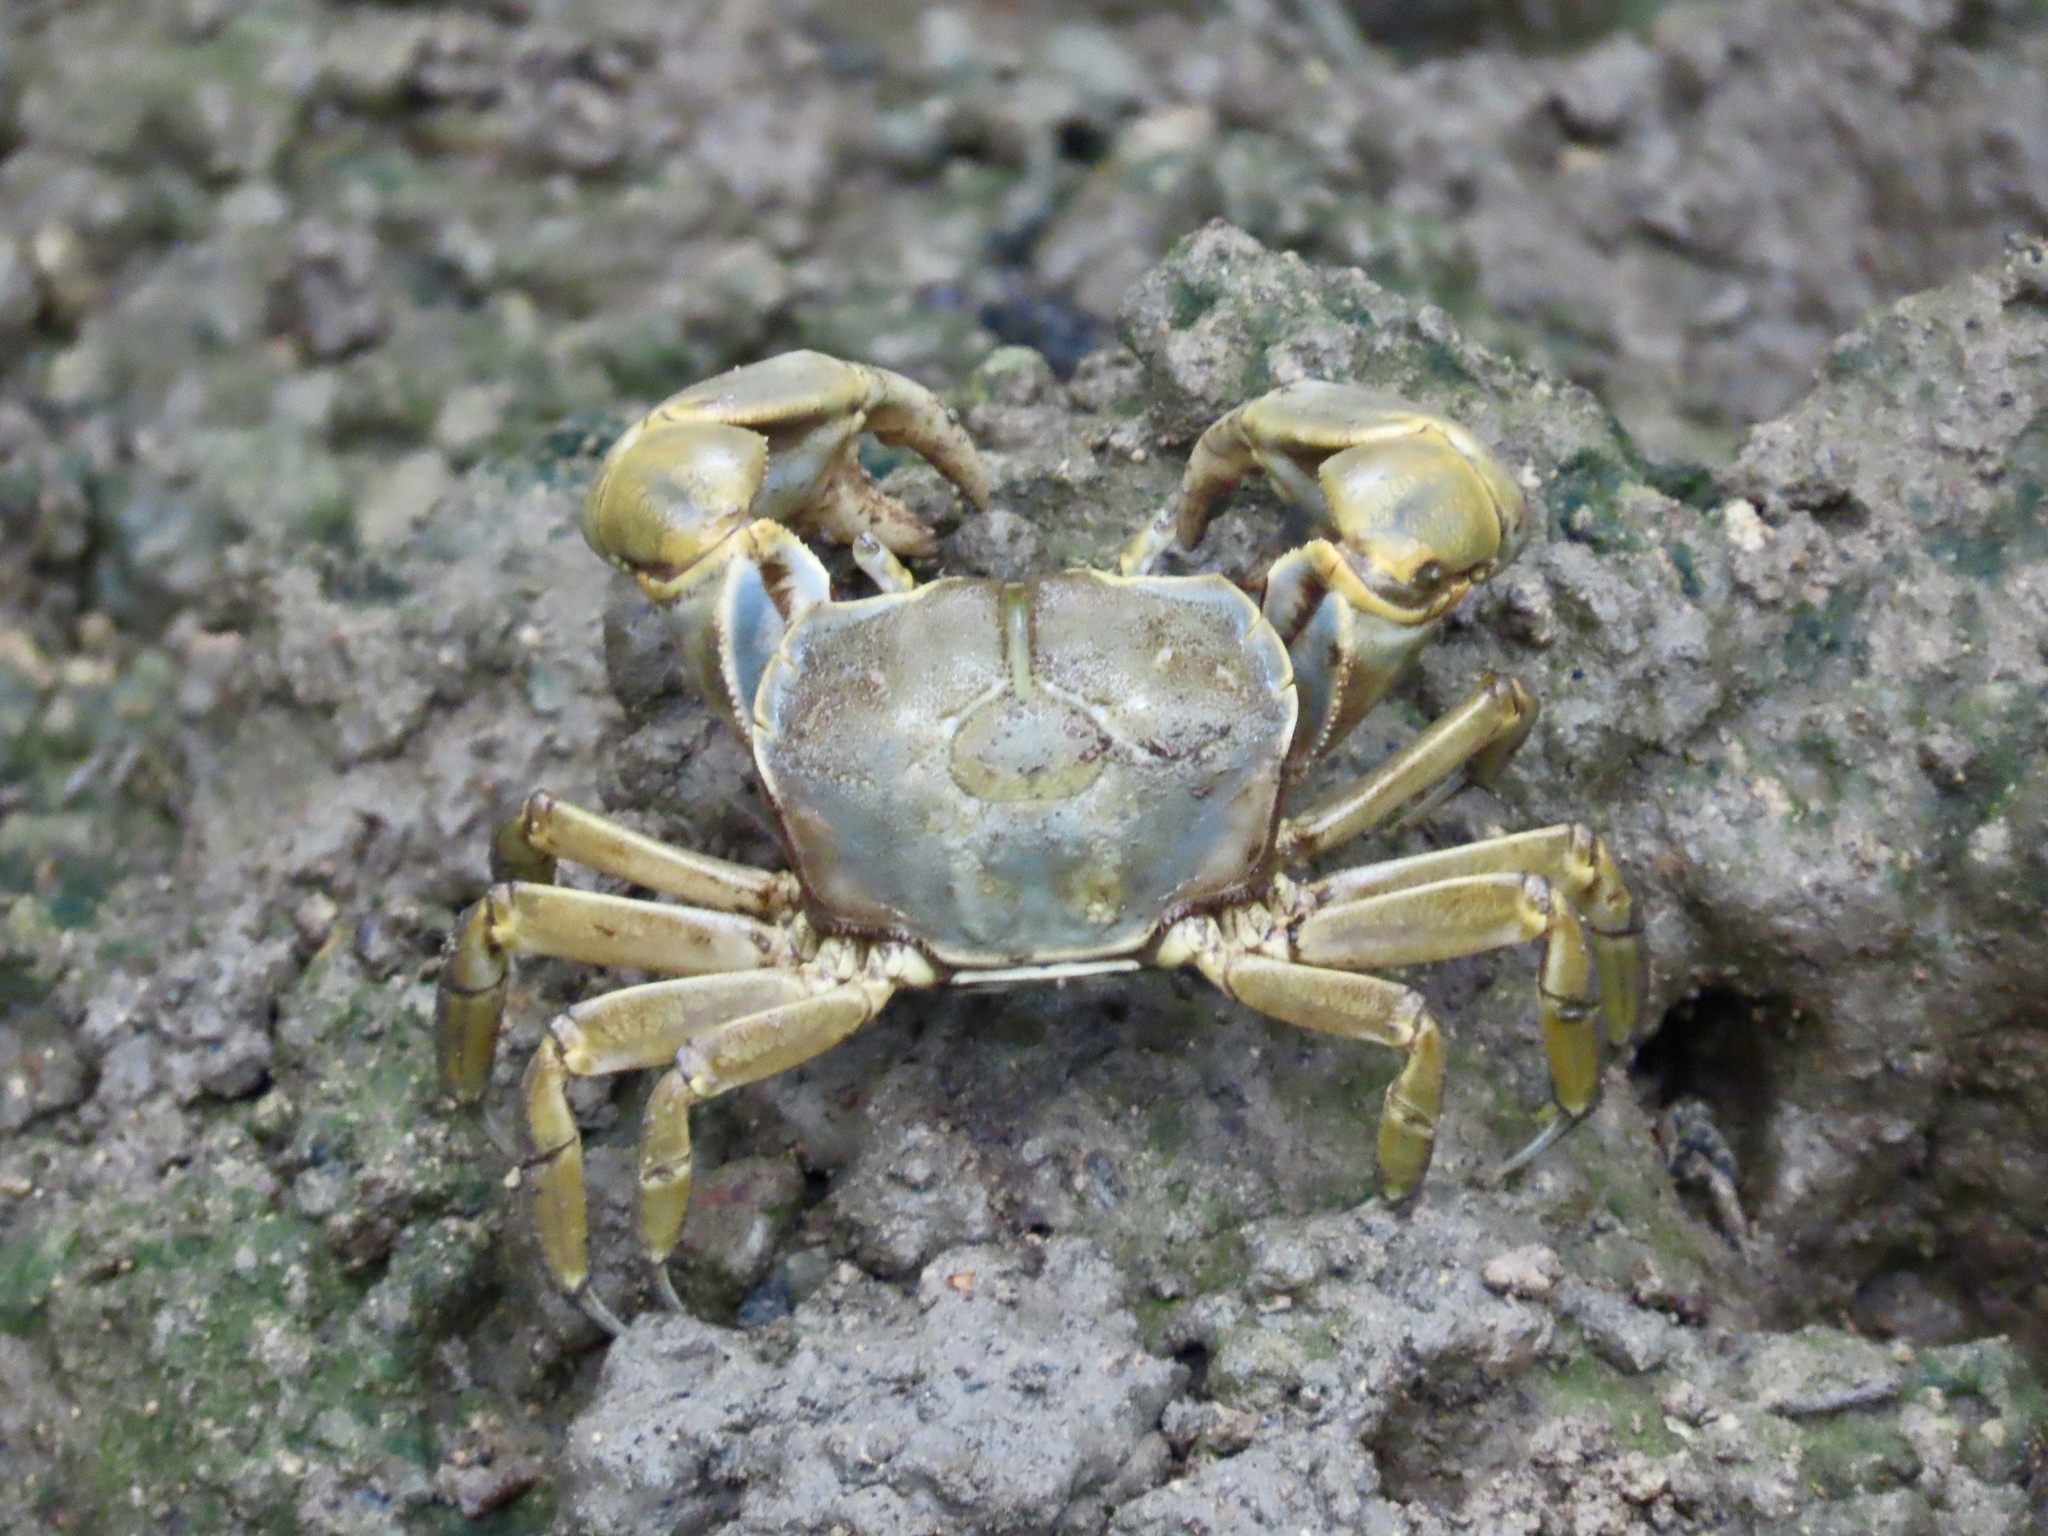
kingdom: Animalia
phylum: Arthropoda
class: Malacostraca
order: Decapoda
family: Varunidae
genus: Chasmagnathus
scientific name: Chasmagnathus convexus
